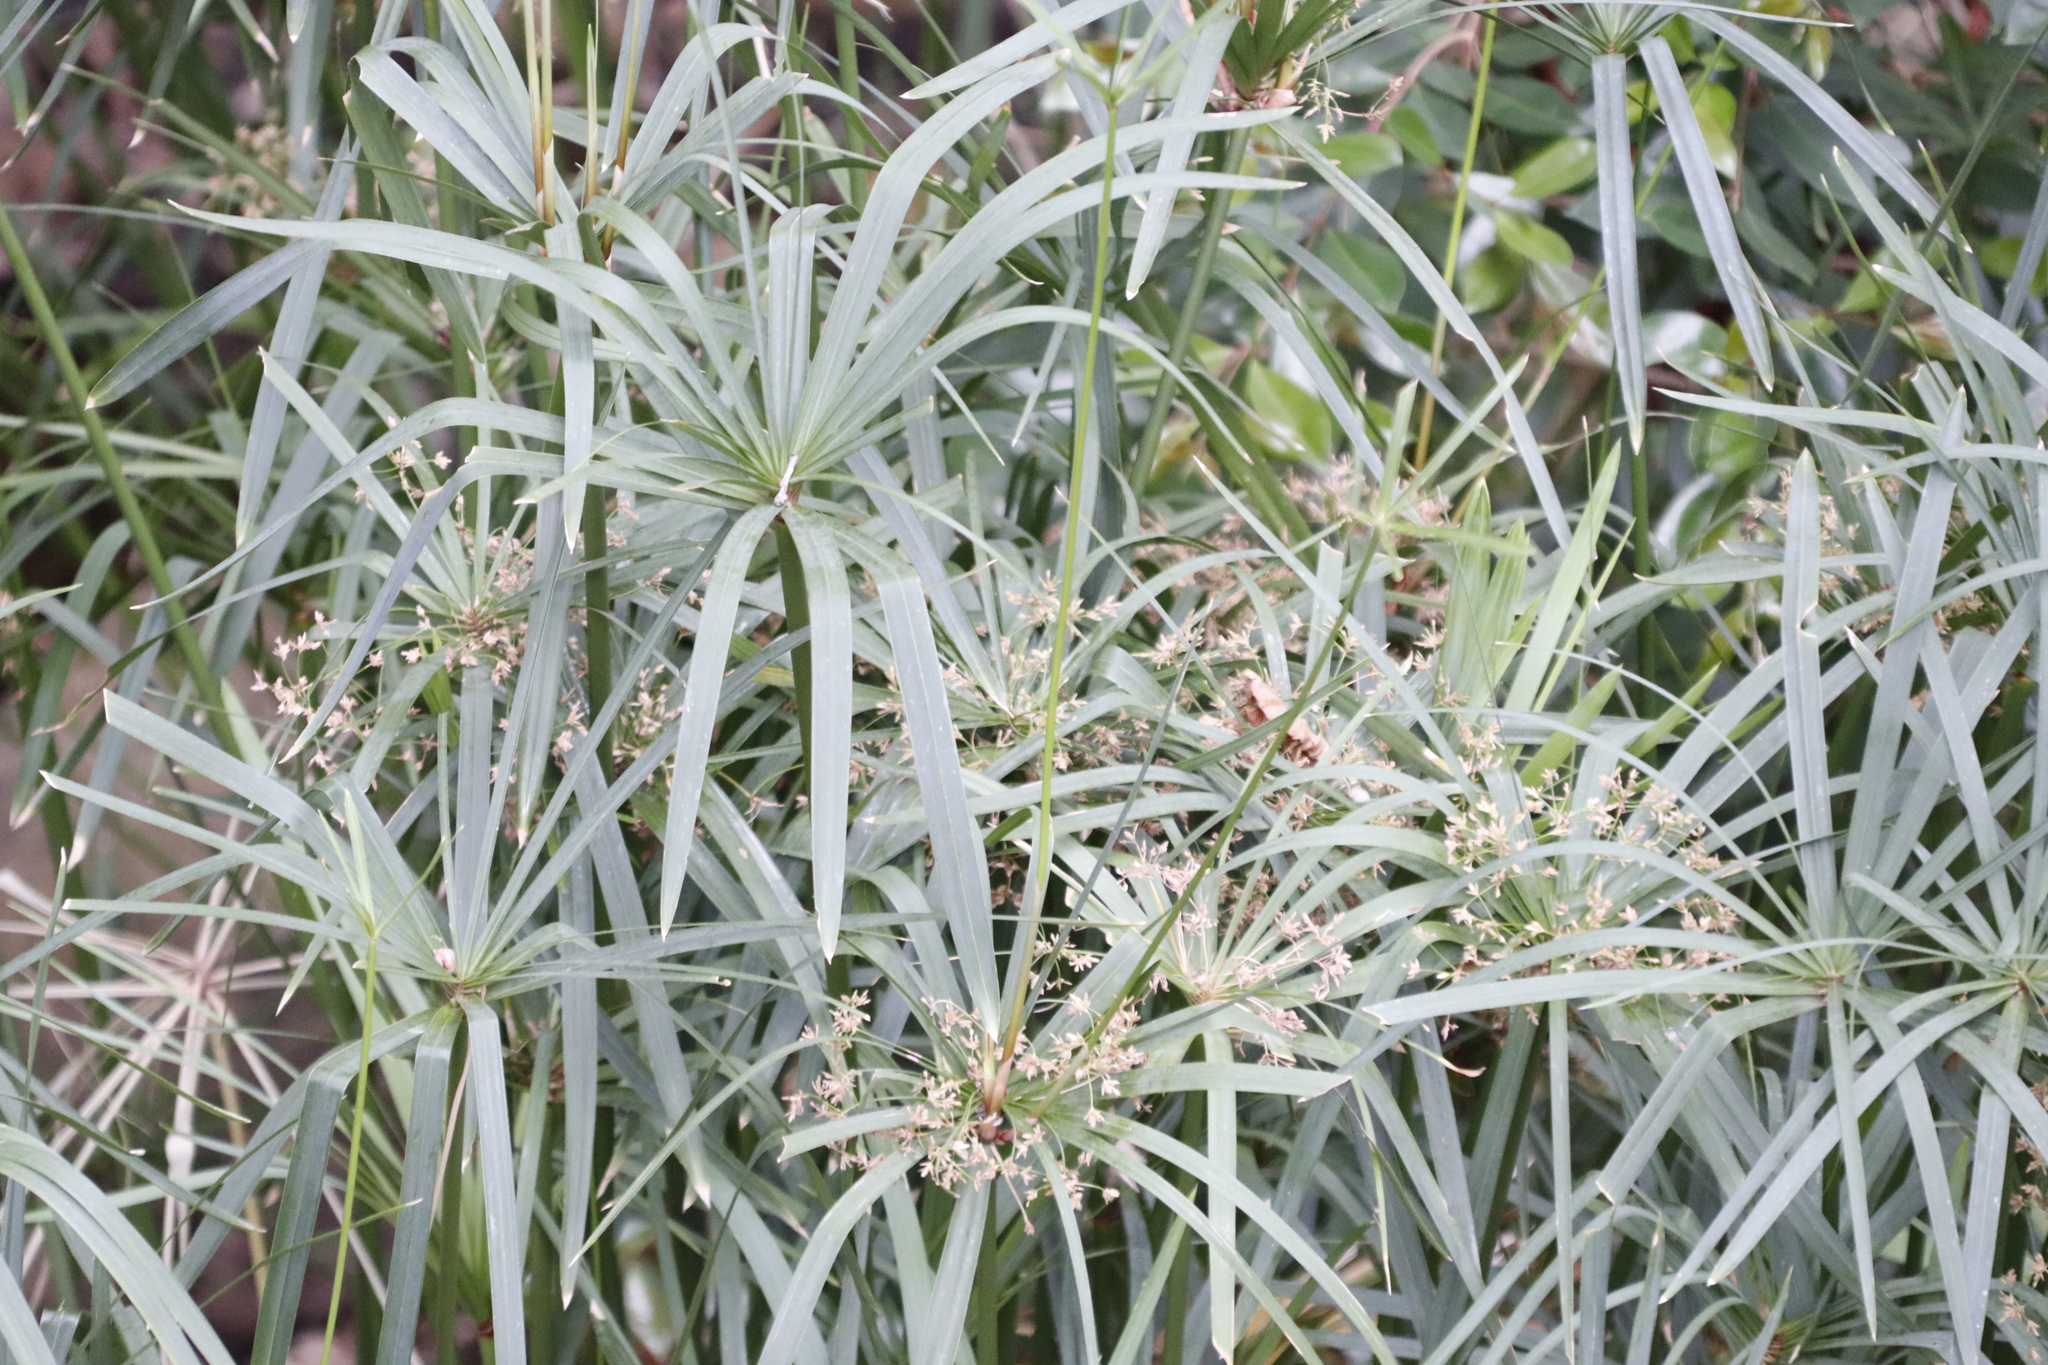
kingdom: Plantae
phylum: Tracheophyta
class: Liliopsida
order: Poales
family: Cyperaceae
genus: Cyperus
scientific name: Cyperus textilis
